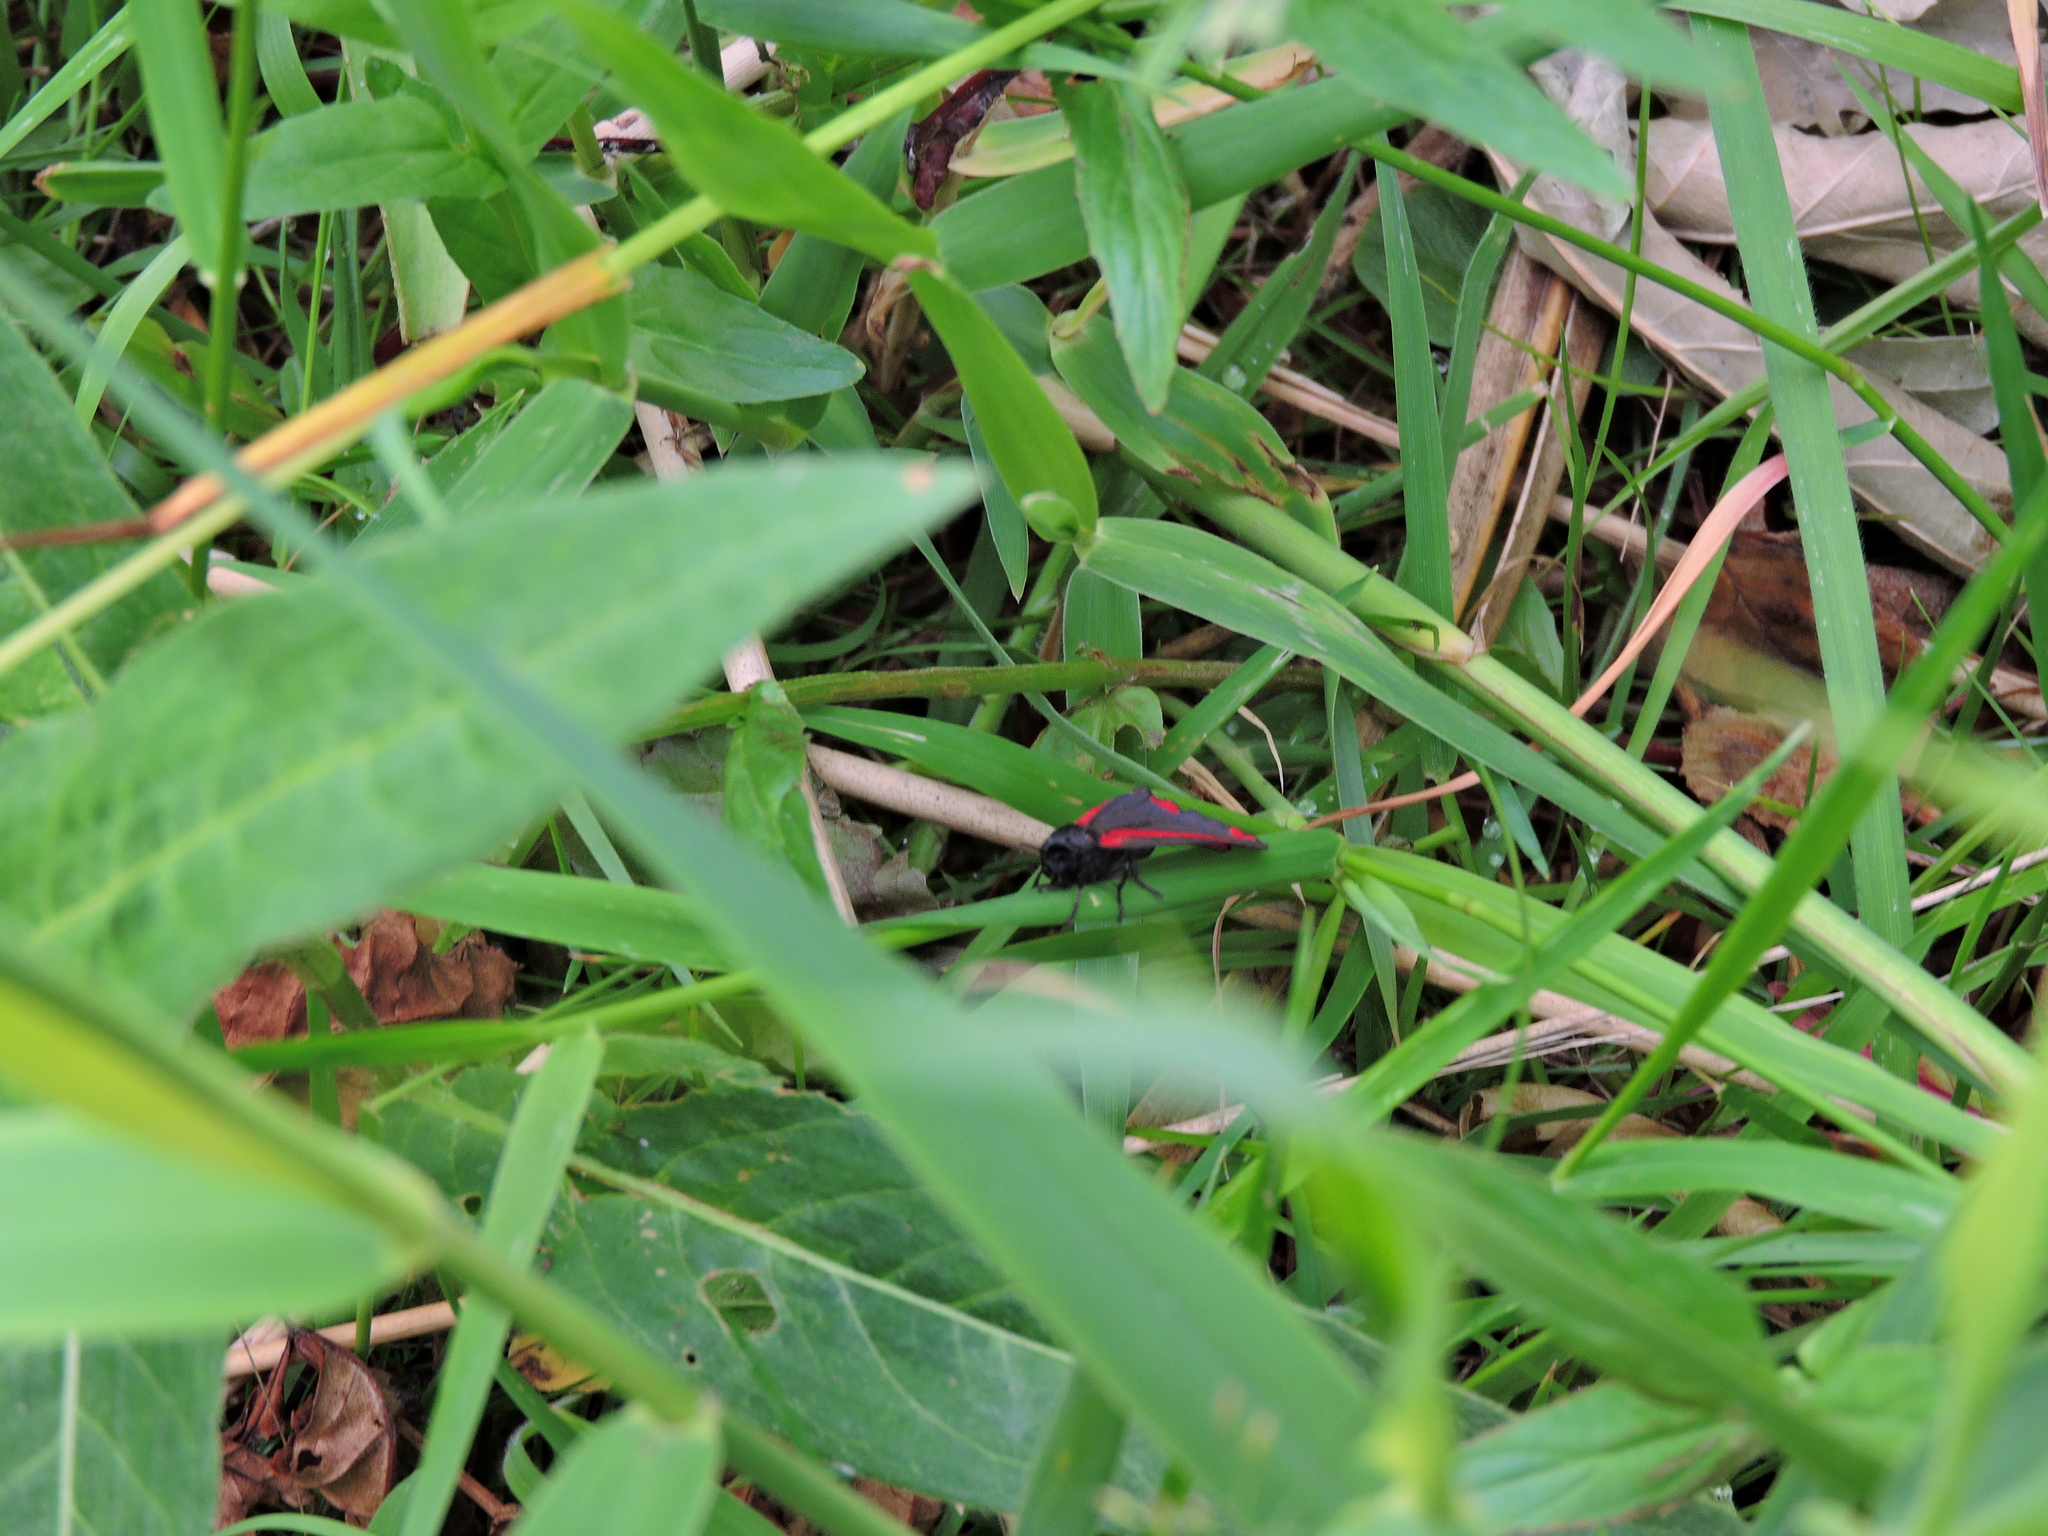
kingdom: Animalia
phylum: Arthropoda
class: Insecta
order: Lepidoptera
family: Erebidae
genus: Tyria
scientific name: Tyria jacobaeae
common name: Cinnabar
